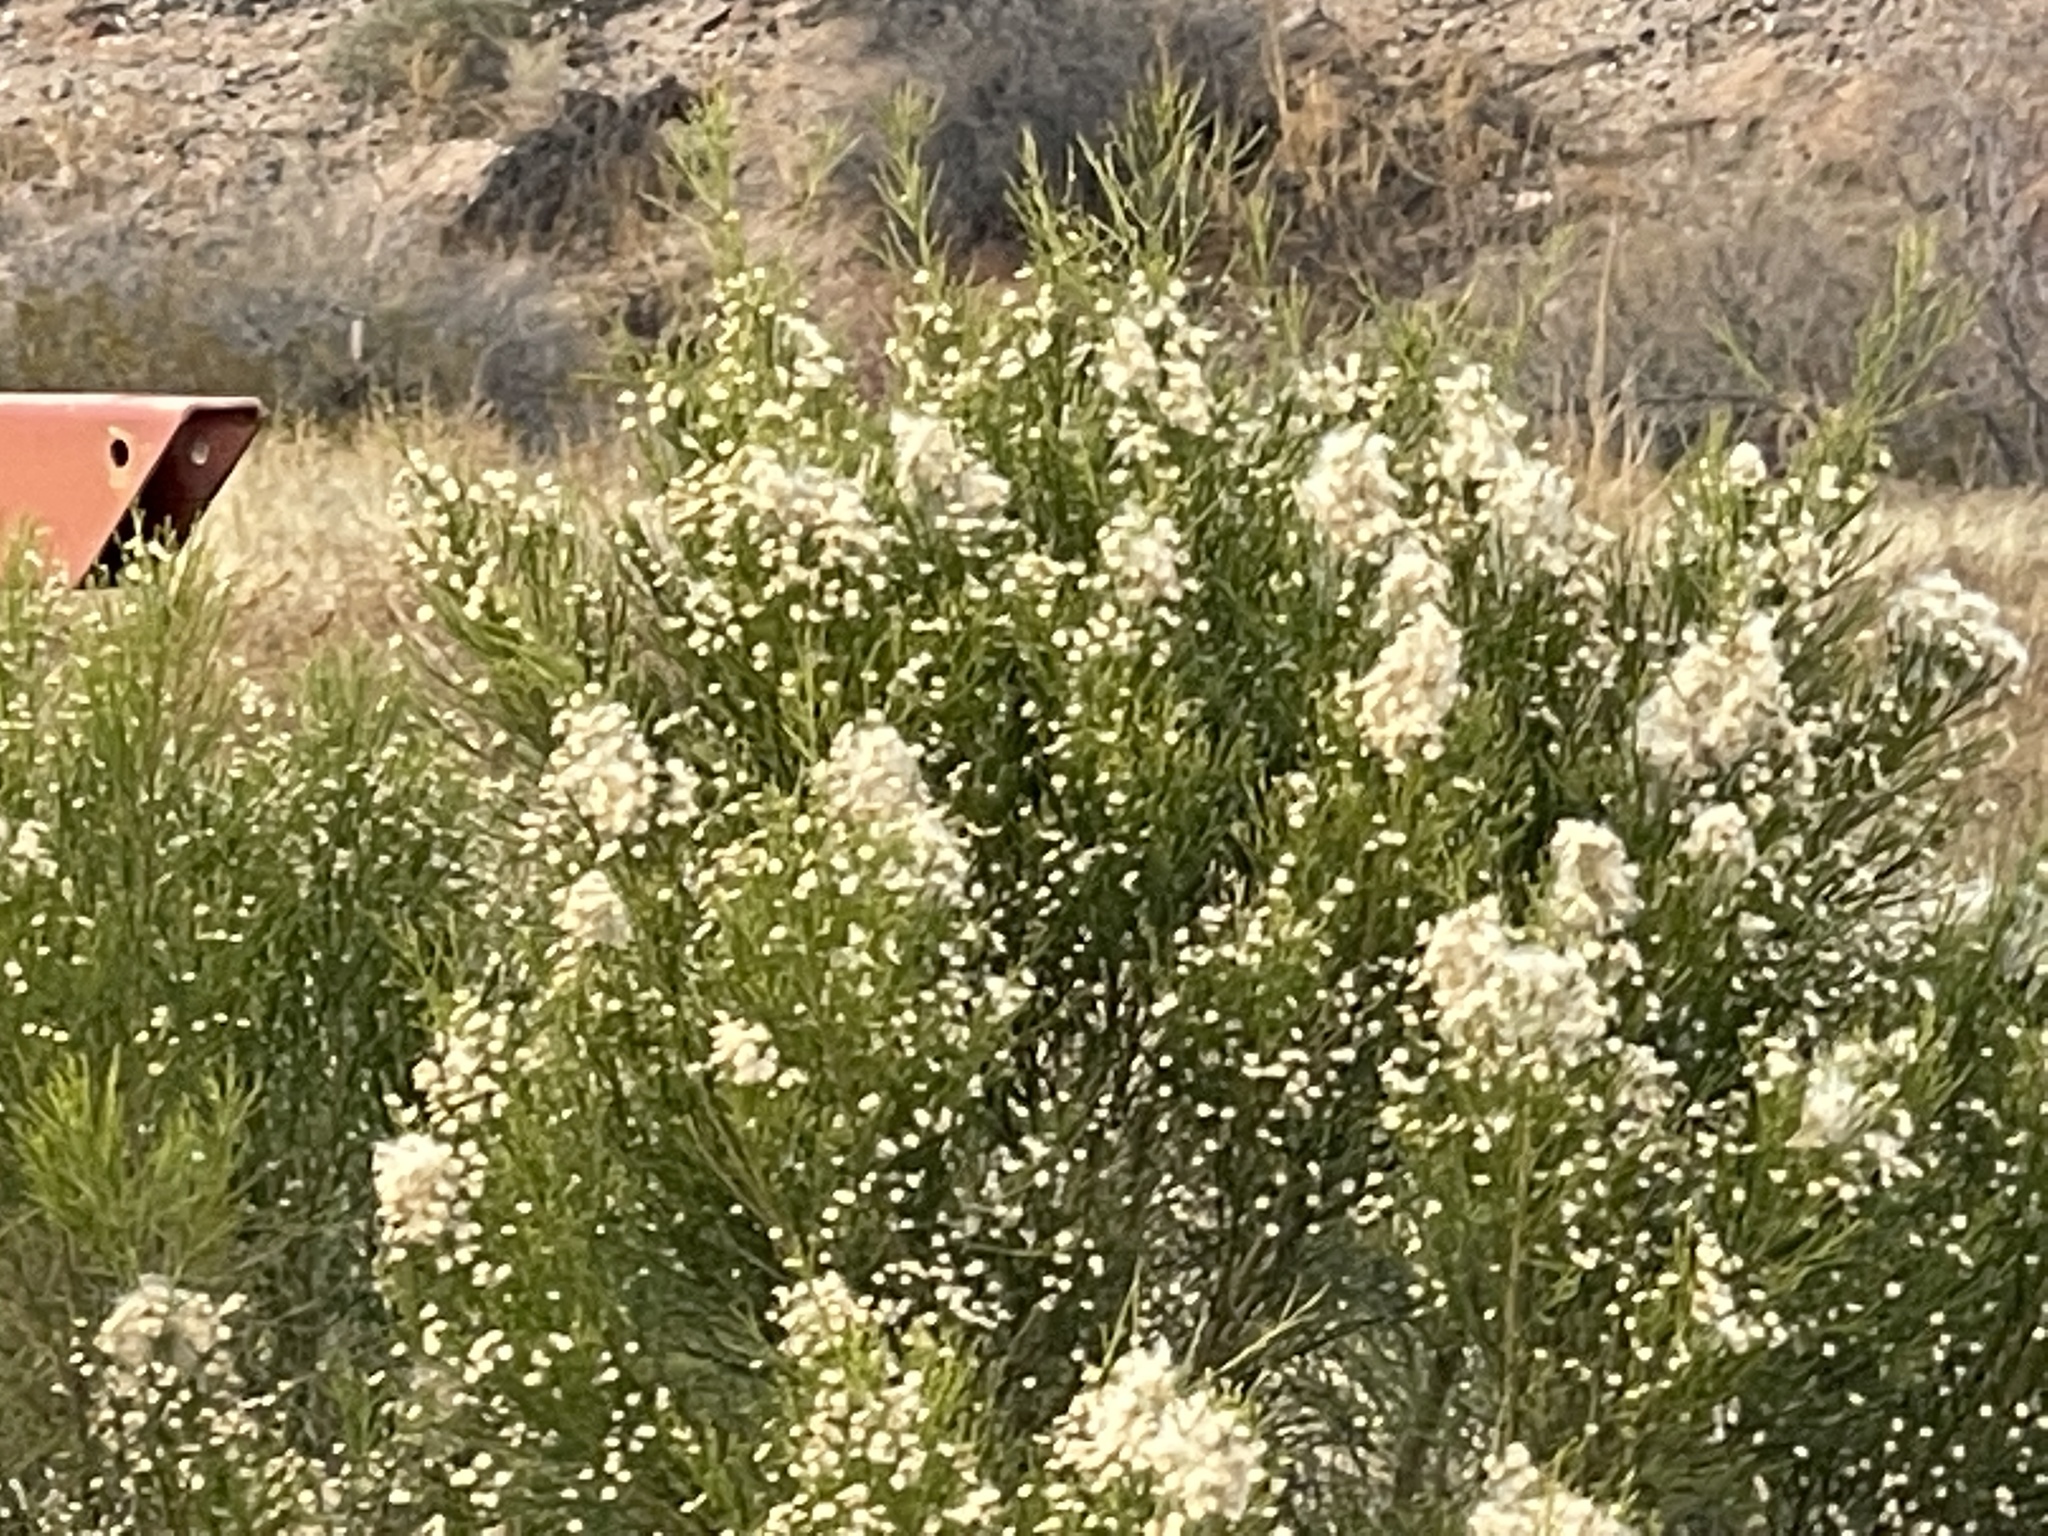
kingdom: Plantae
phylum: Tracheophyta
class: Magnoliopsida
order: Asterales
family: Asteraceae
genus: Baccharis
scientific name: Baccharis sarothroides
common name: Desert-broom
